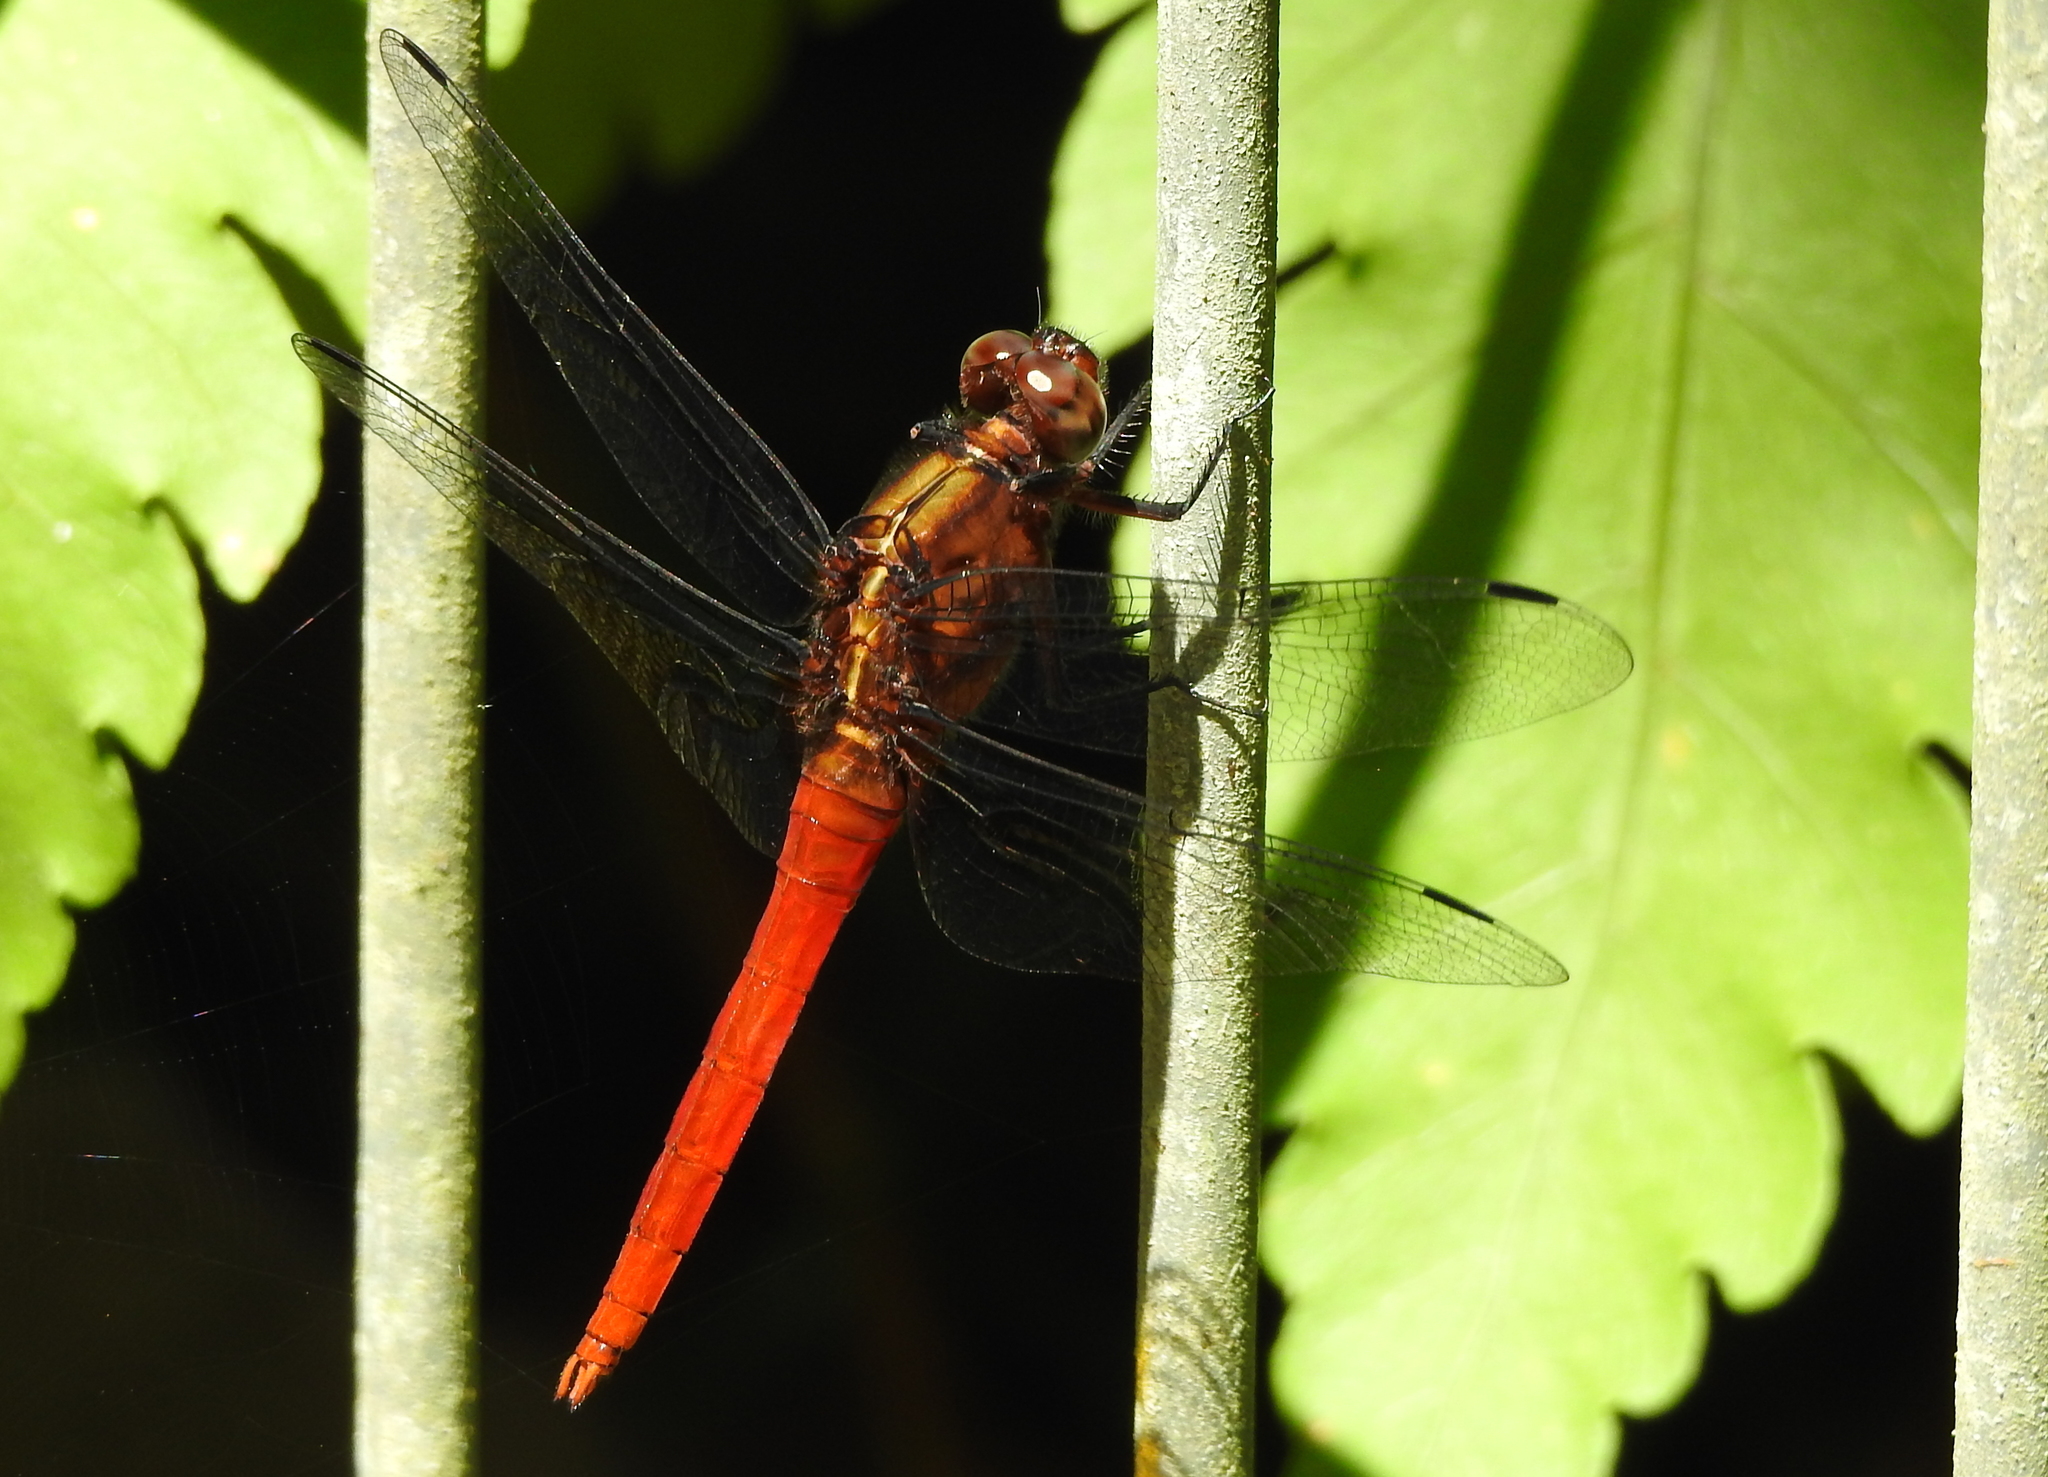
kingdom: Animalia
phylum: Arthropoda
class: Insecta
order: Odonata
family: Libellulidae
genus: Orthetrum
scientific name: Orthetrum testaceum
